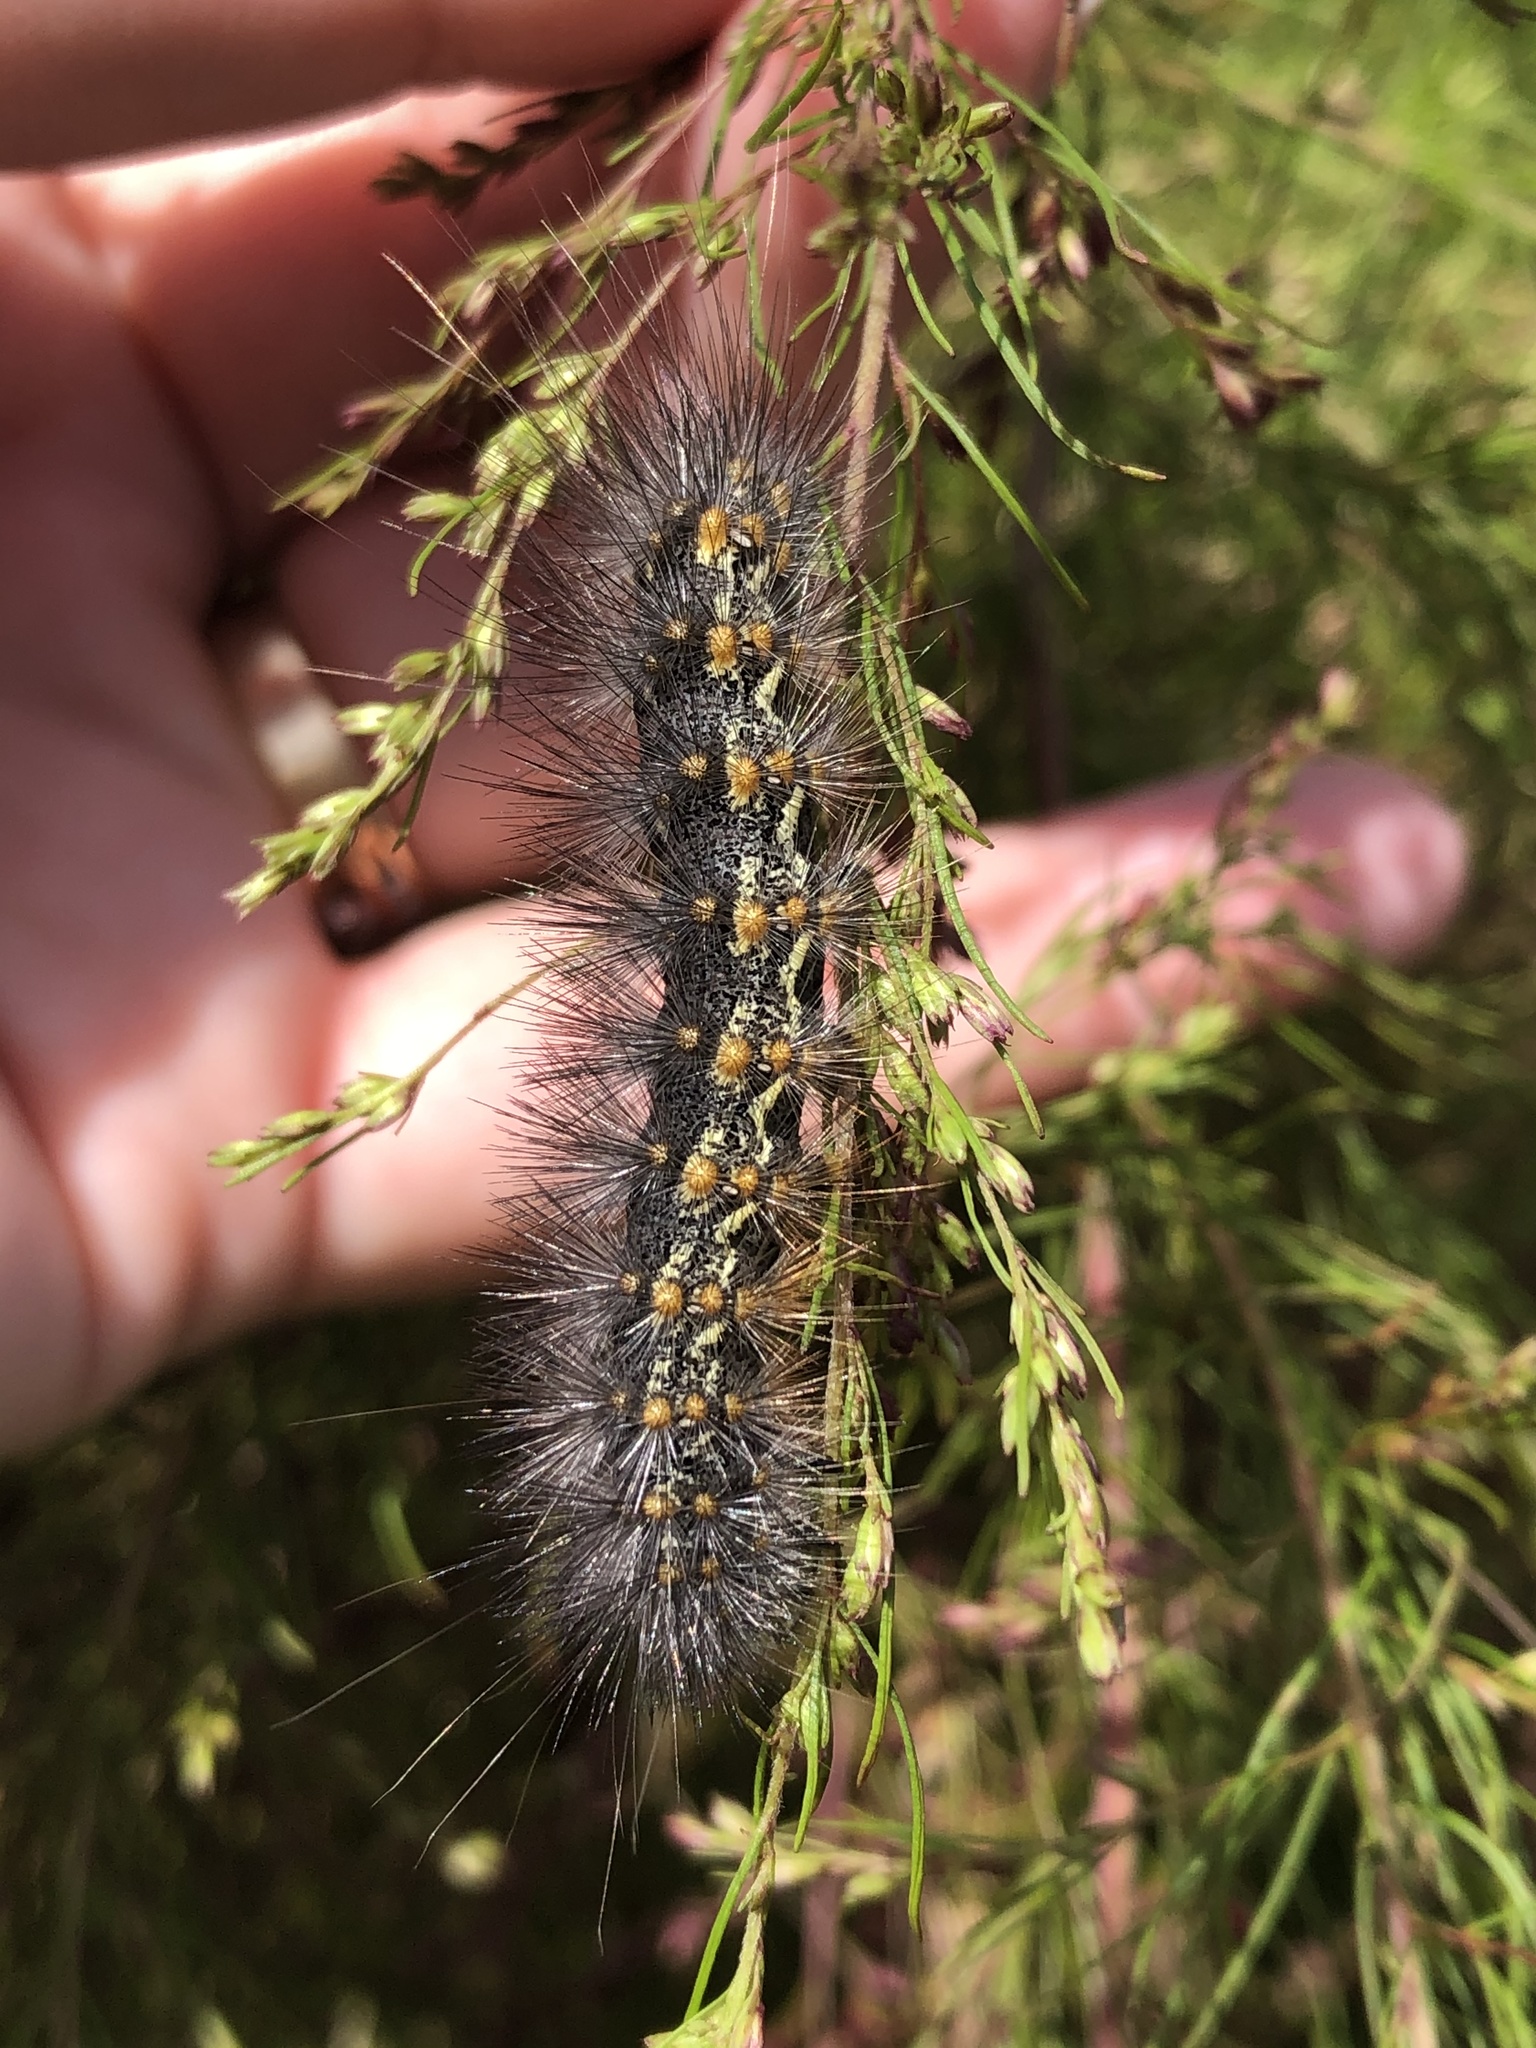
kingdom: Animalia
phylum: Arthropoda
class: Insecta
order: Lepidoptera
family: Erebidae
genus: Estigmene
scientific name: Estigmene acrea
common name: Salt marsh moth
